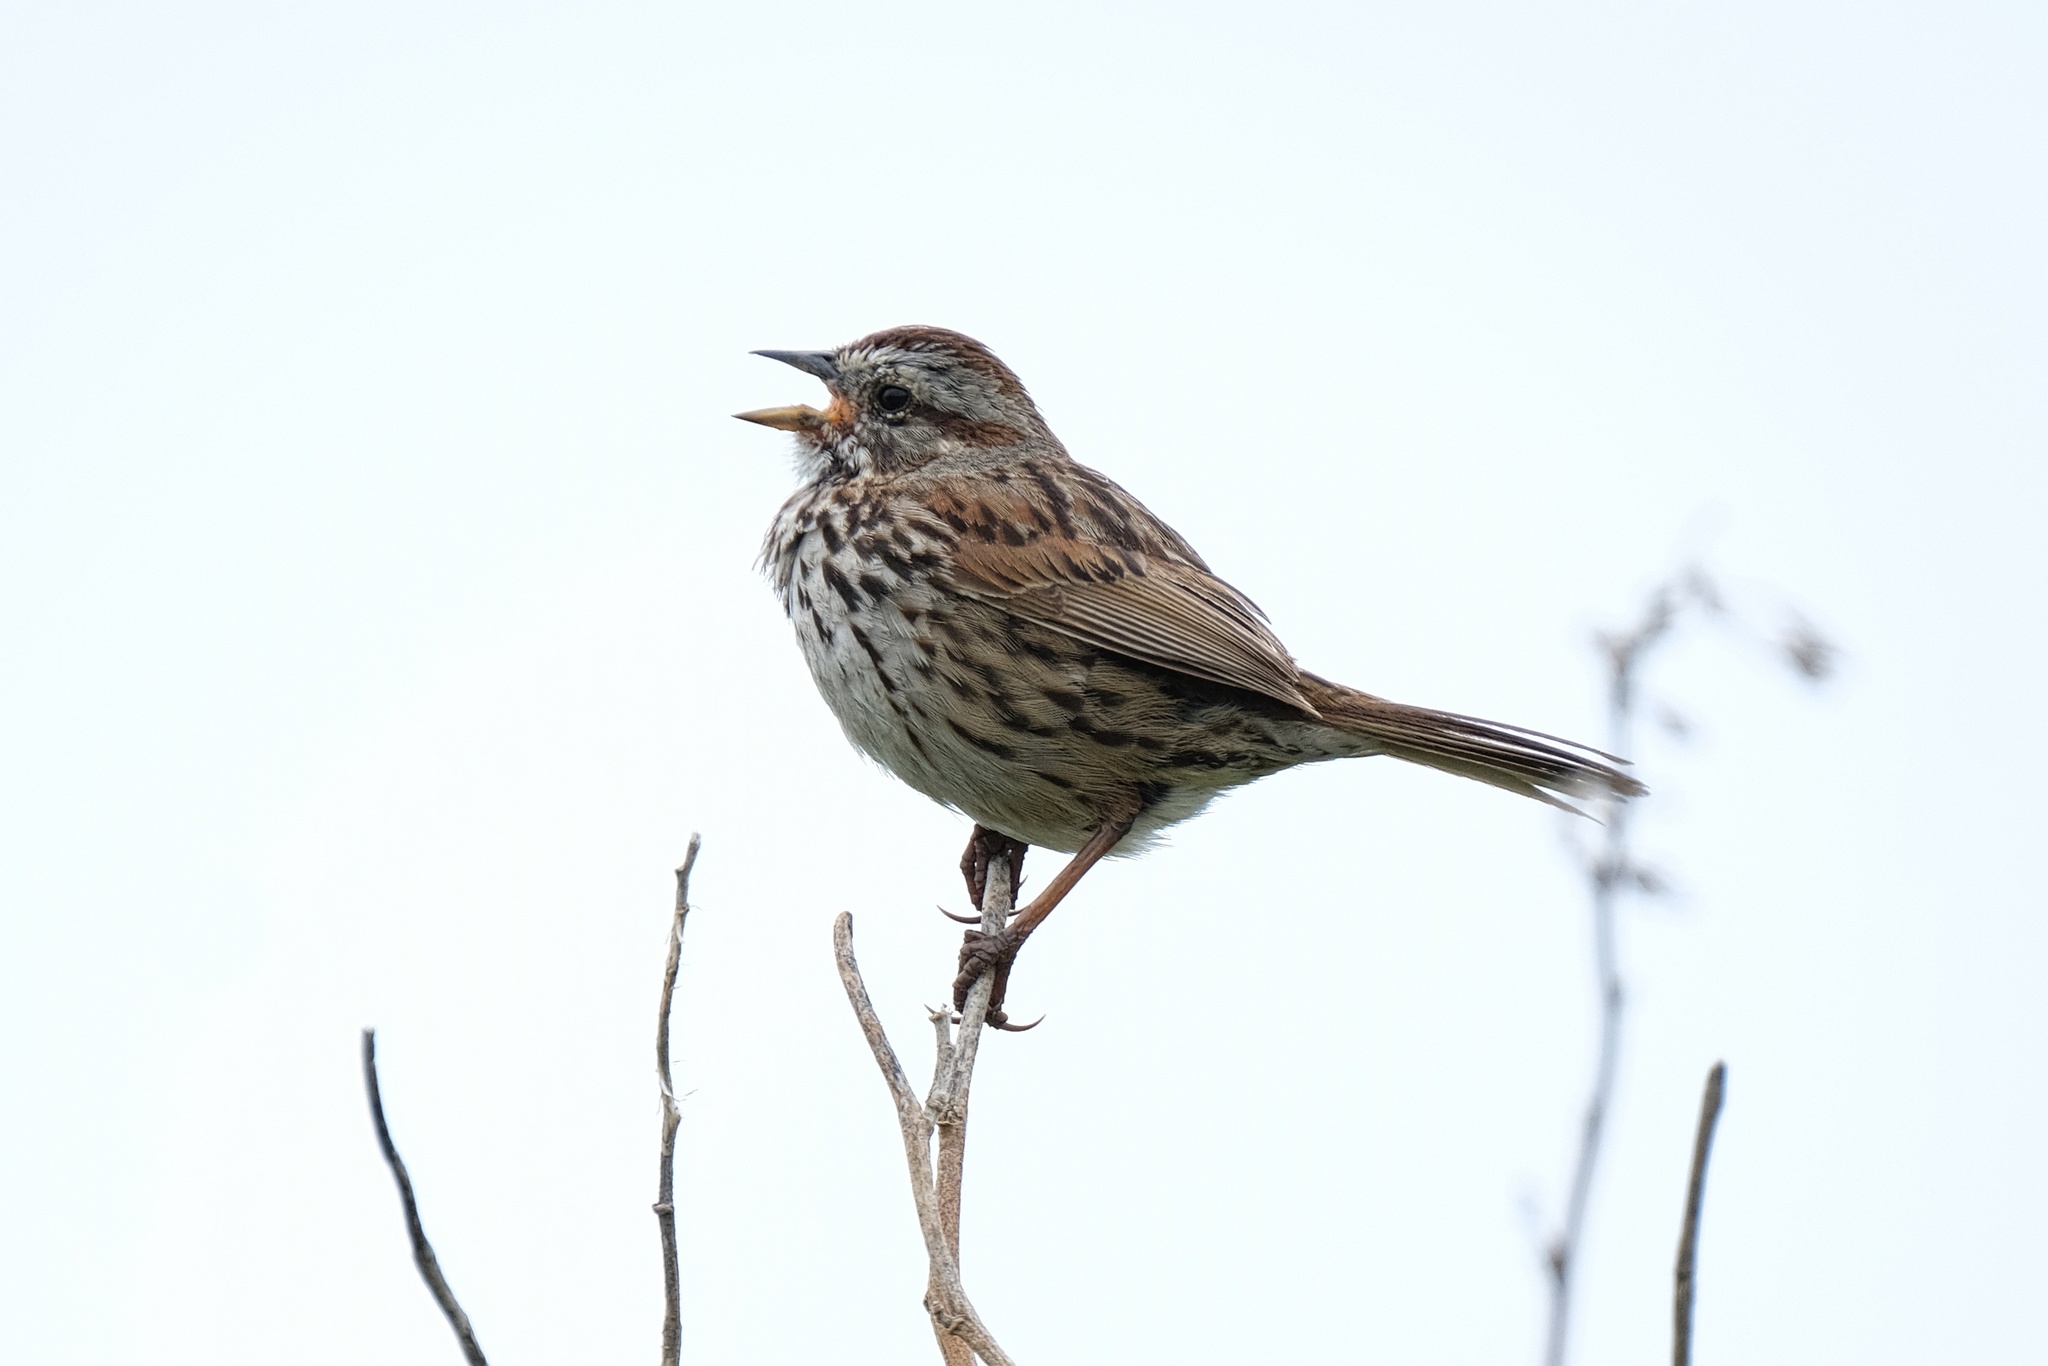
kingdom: Animalia
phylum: Chordata
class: Aves
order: Passeriformes
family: Passerellidae
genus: Melospiza
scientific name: Melospiza melodia
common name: Song sparrow
